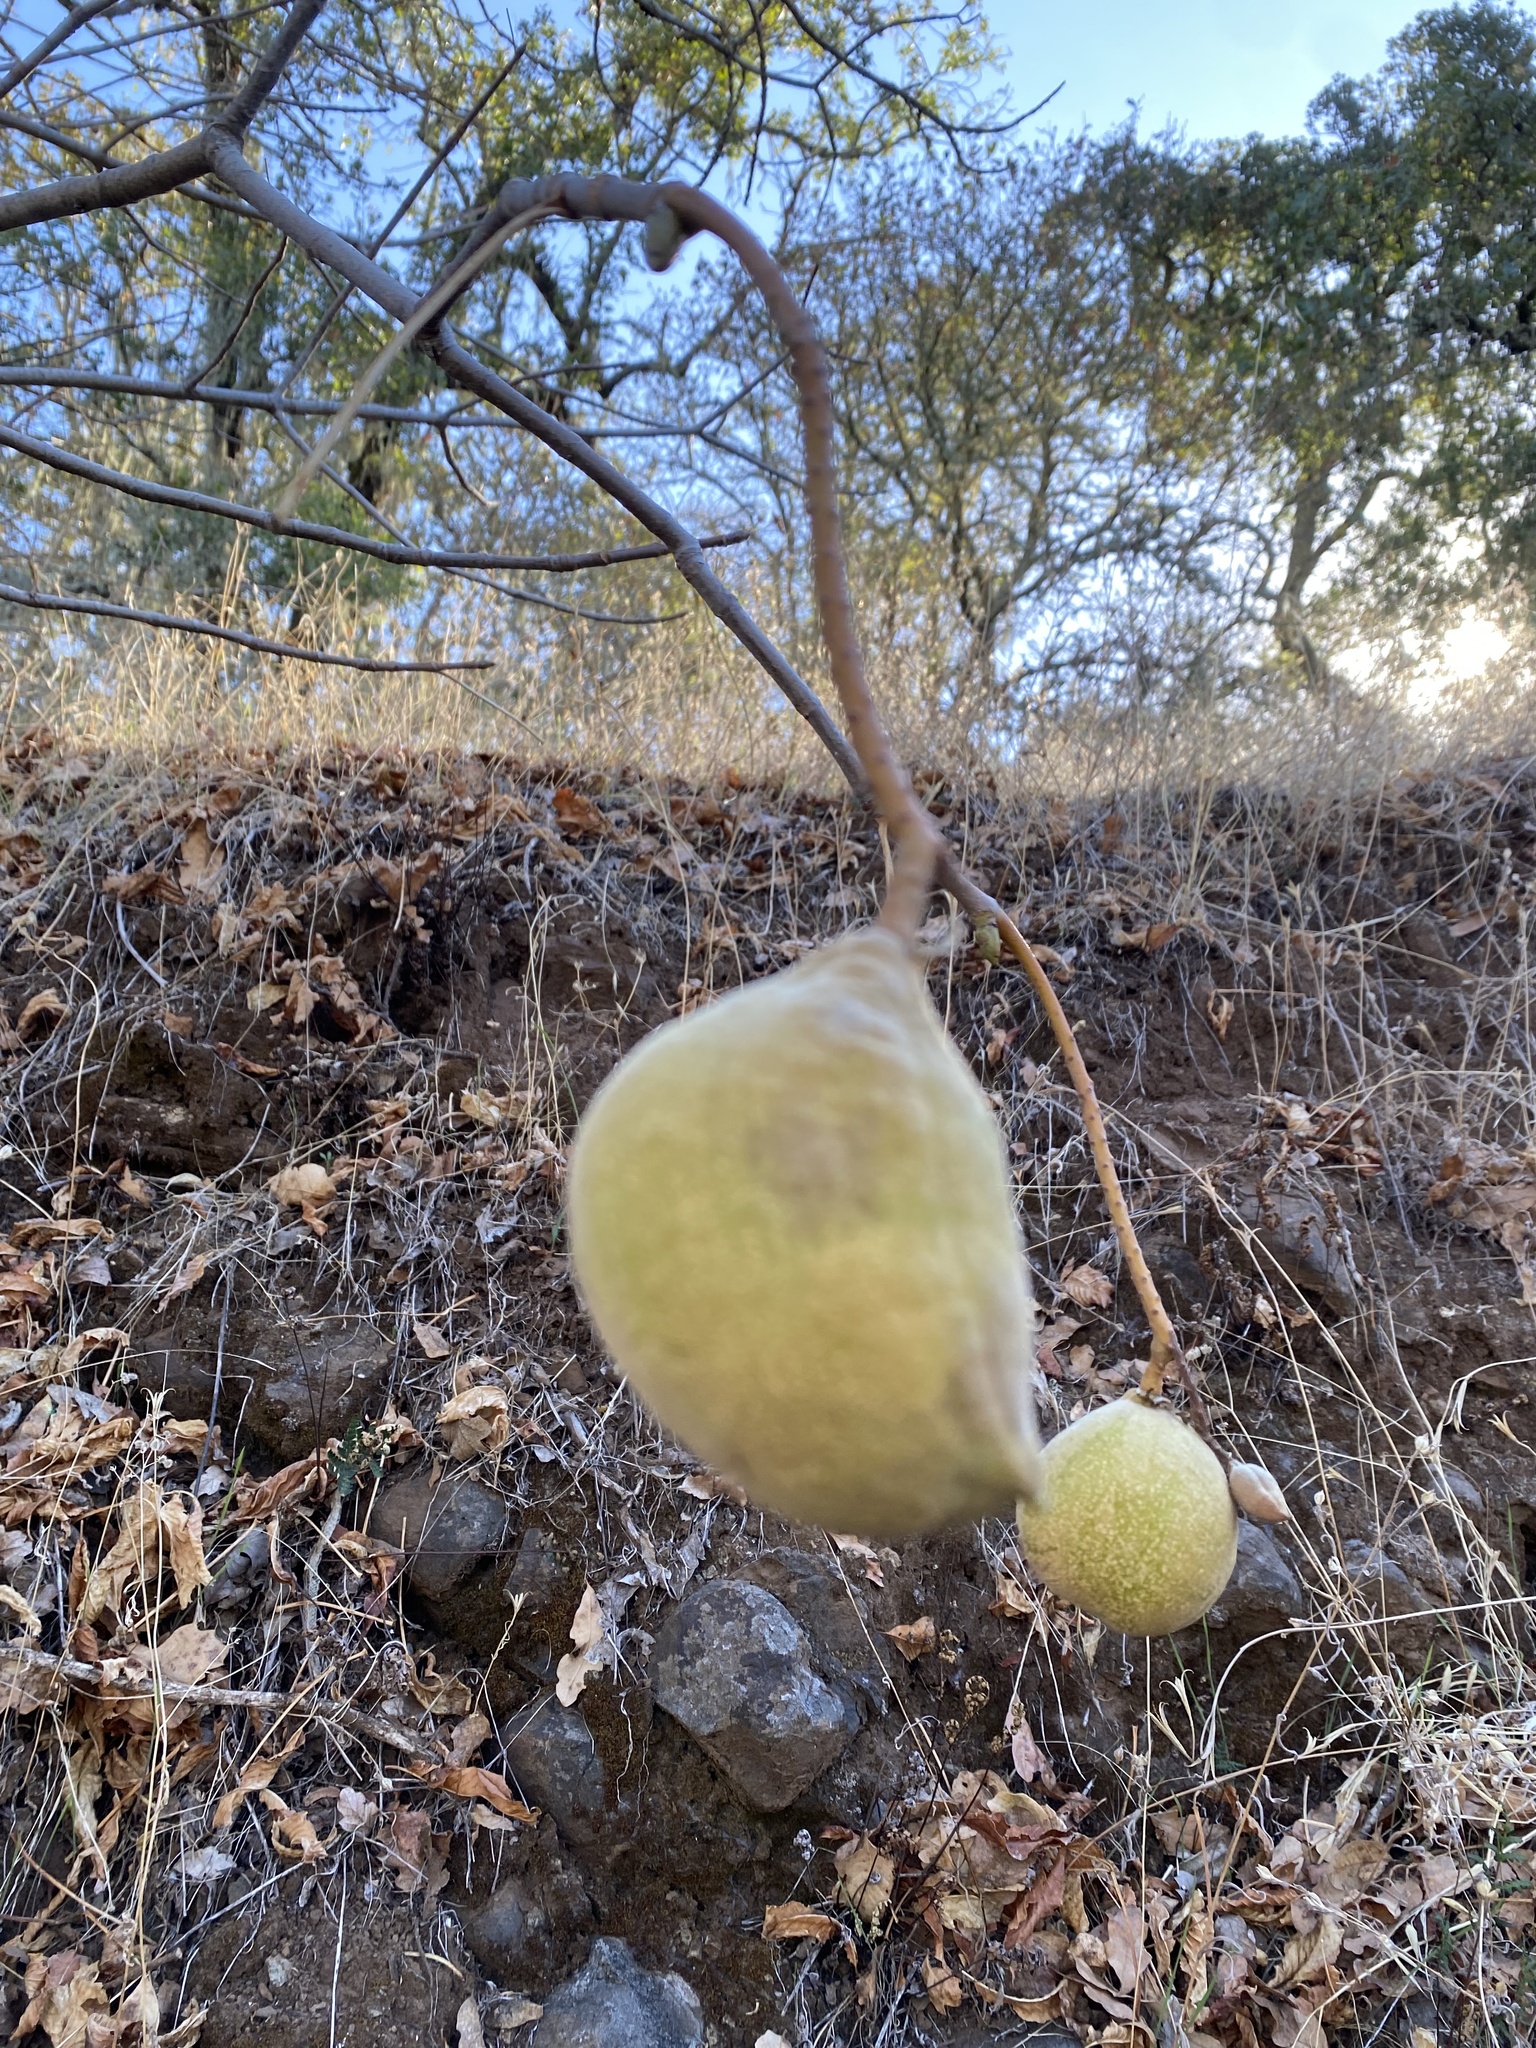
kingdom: Plantae
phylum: Tracheophyta
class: Magnoliopsida
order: Sapindales
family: Sapindaceae
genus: Aesculus
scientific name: Aesculus californica
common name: California buckeye
